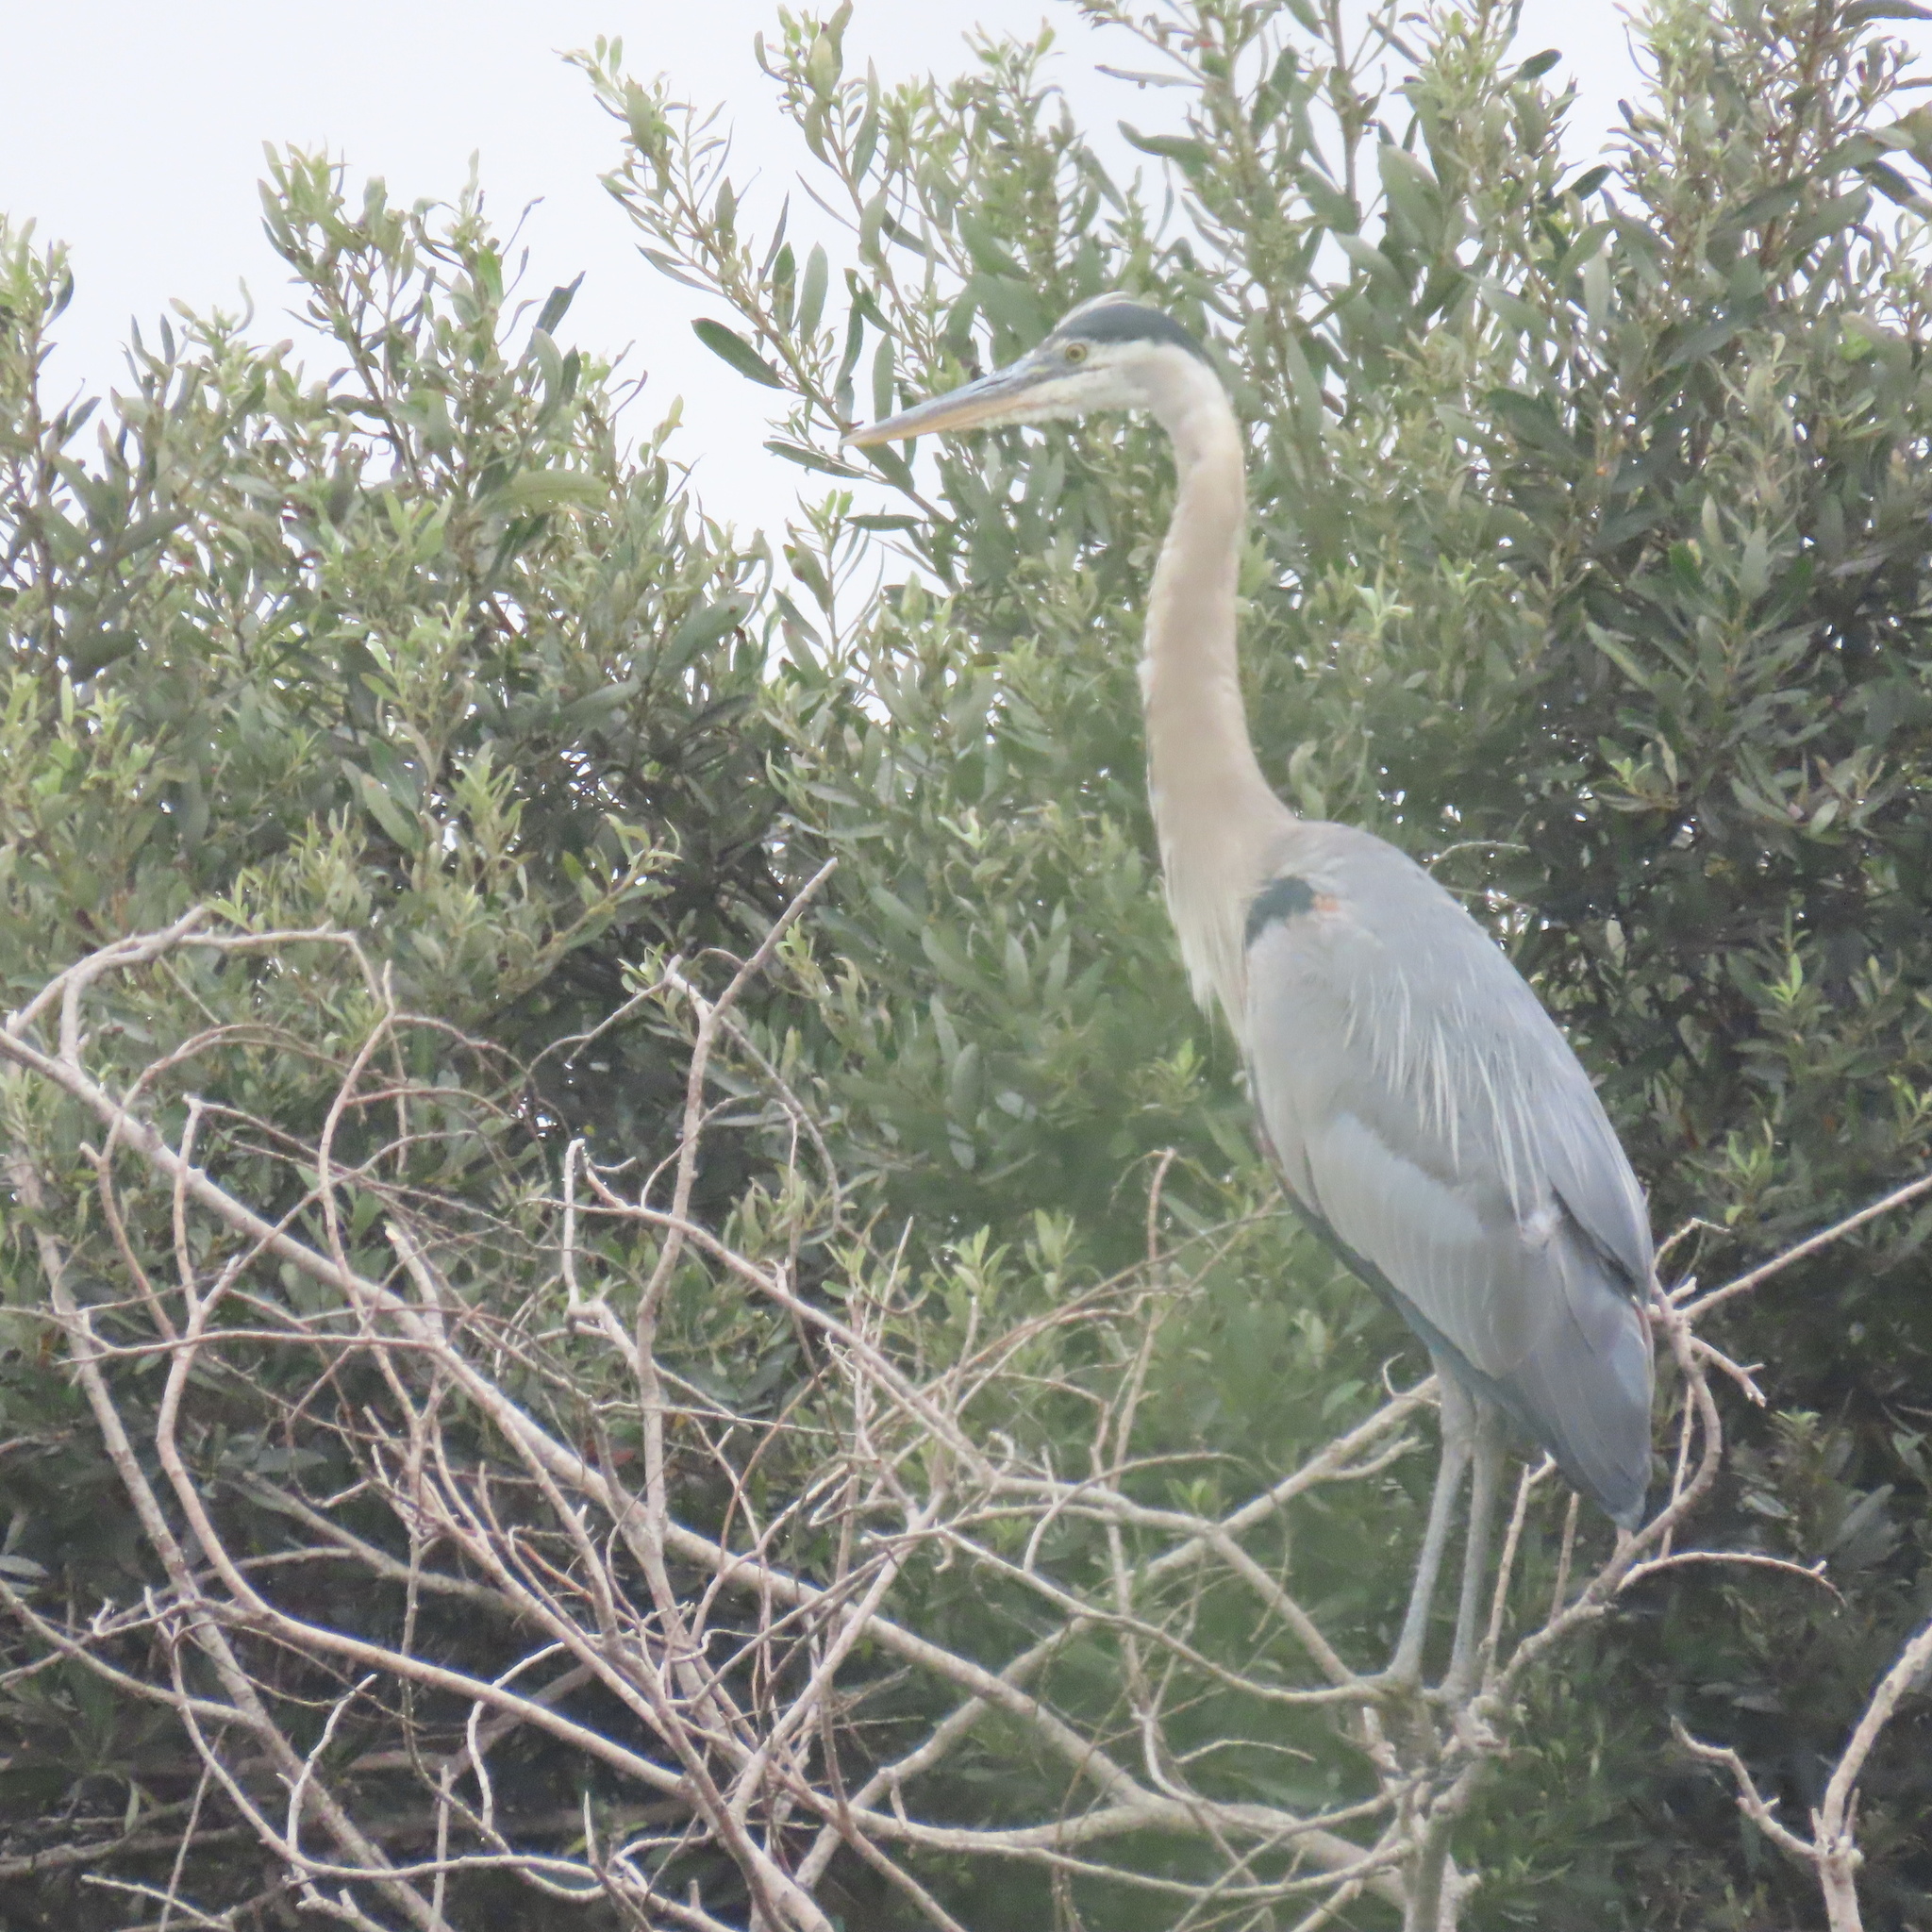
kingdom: Animalia
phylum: Chordata
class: Aves
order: Pelecaniformes
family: Ardeidae
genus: Ardea
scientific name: Ardea herodias
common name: Great blue heron
